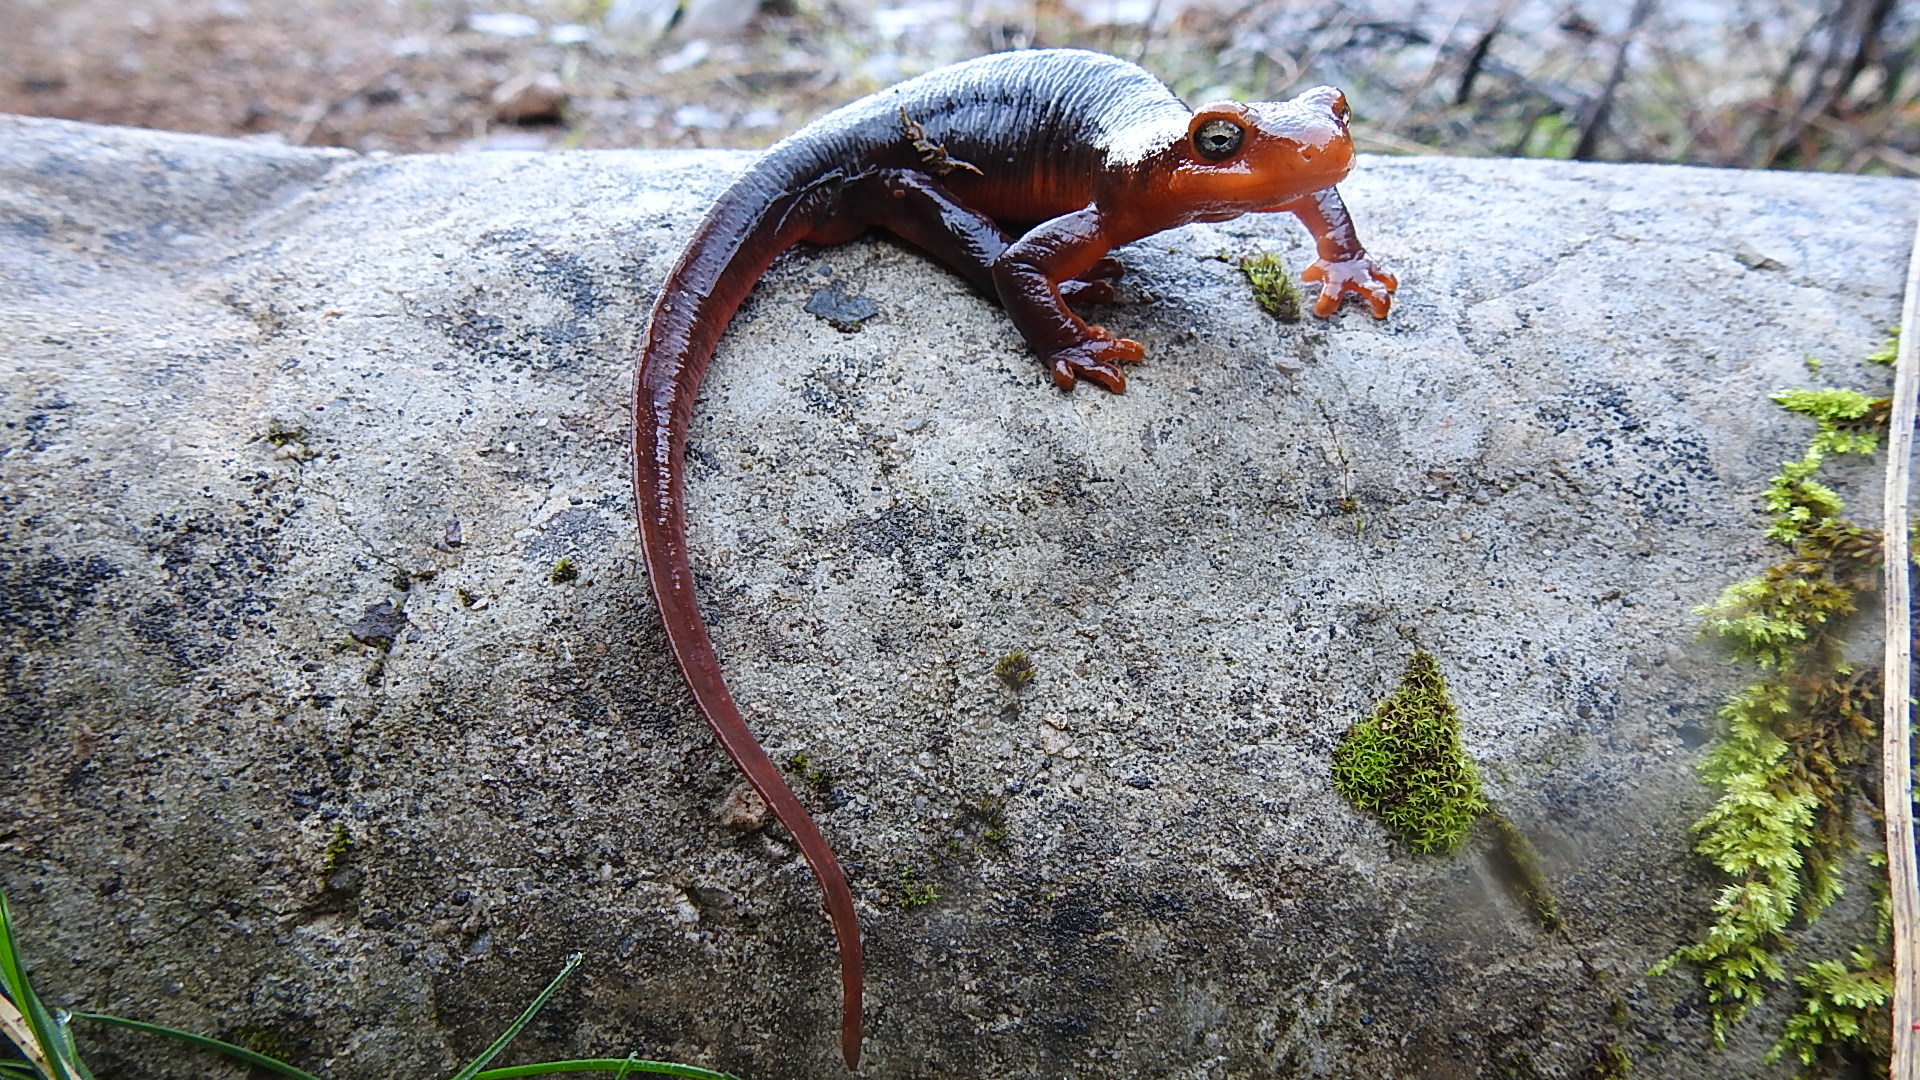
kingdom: Animalia
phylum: Chordata
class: Amphibia
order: Caudata
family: Salamandridae
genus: Taricha
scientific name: Taricha sierrae
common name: Sierra newt
